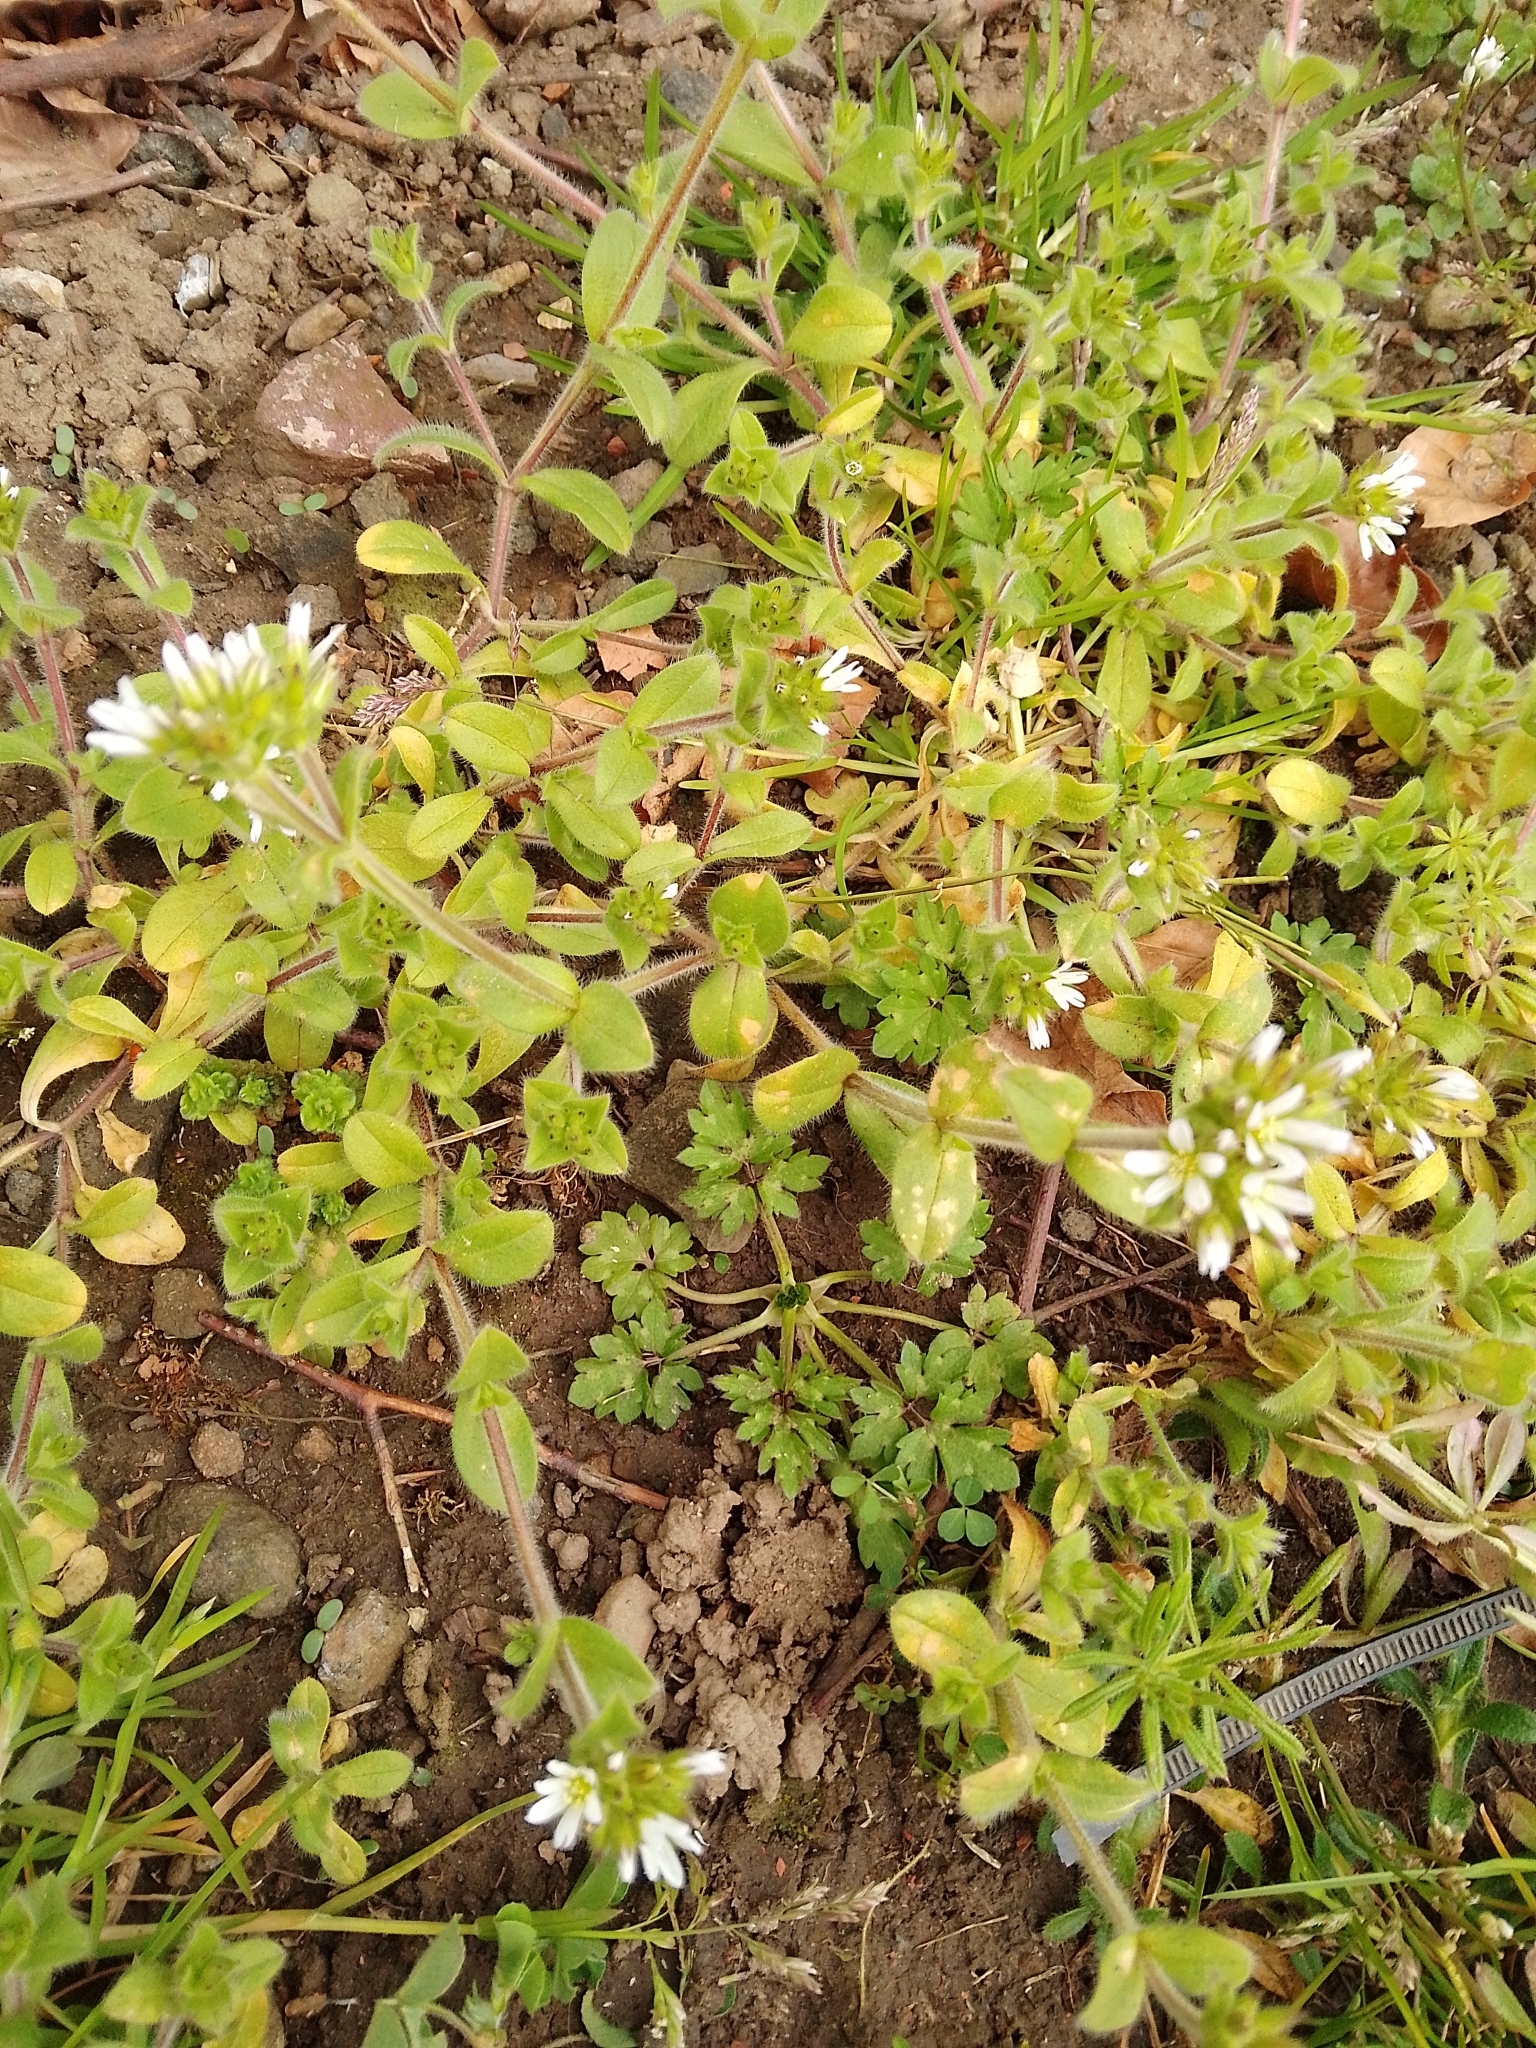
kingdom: Plantae
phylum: Tracheophyta
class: Magnoliopsida
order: Caryophyllales
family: Caryophyllaceae
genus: Cerastium
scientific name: Cerastium glomeratum
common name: Sticky chickweed
